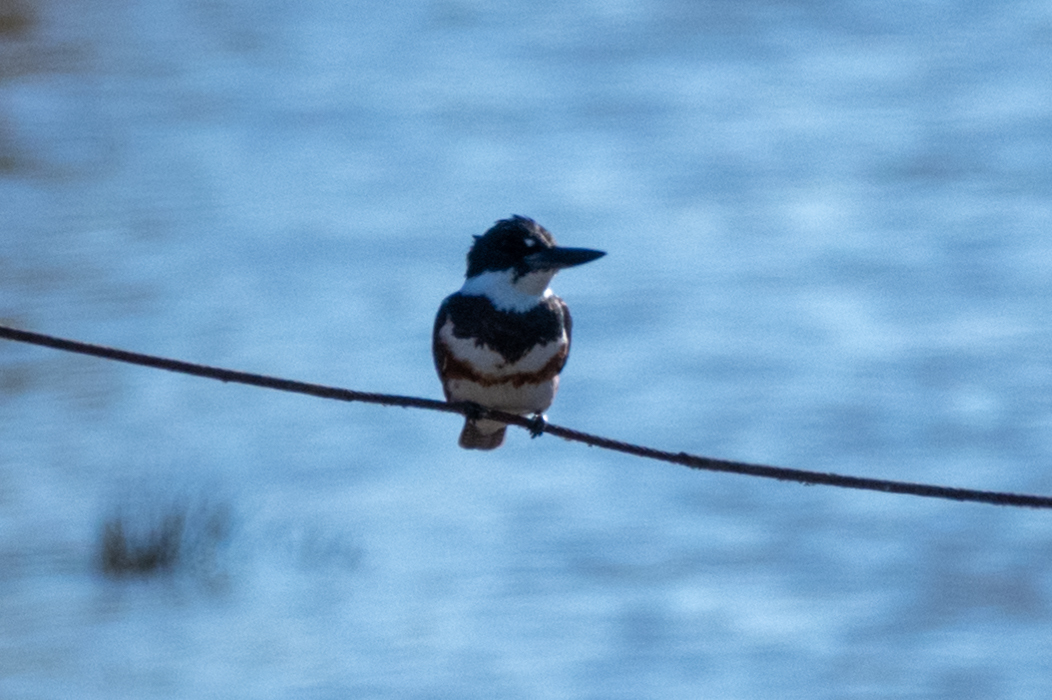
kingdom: Animalia
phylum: Chordata
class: Aves
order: Coraciiformes
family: Alcedinidae
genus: Megaceryle
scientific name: Megaceryle alcyon
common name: Belted kingfisher
